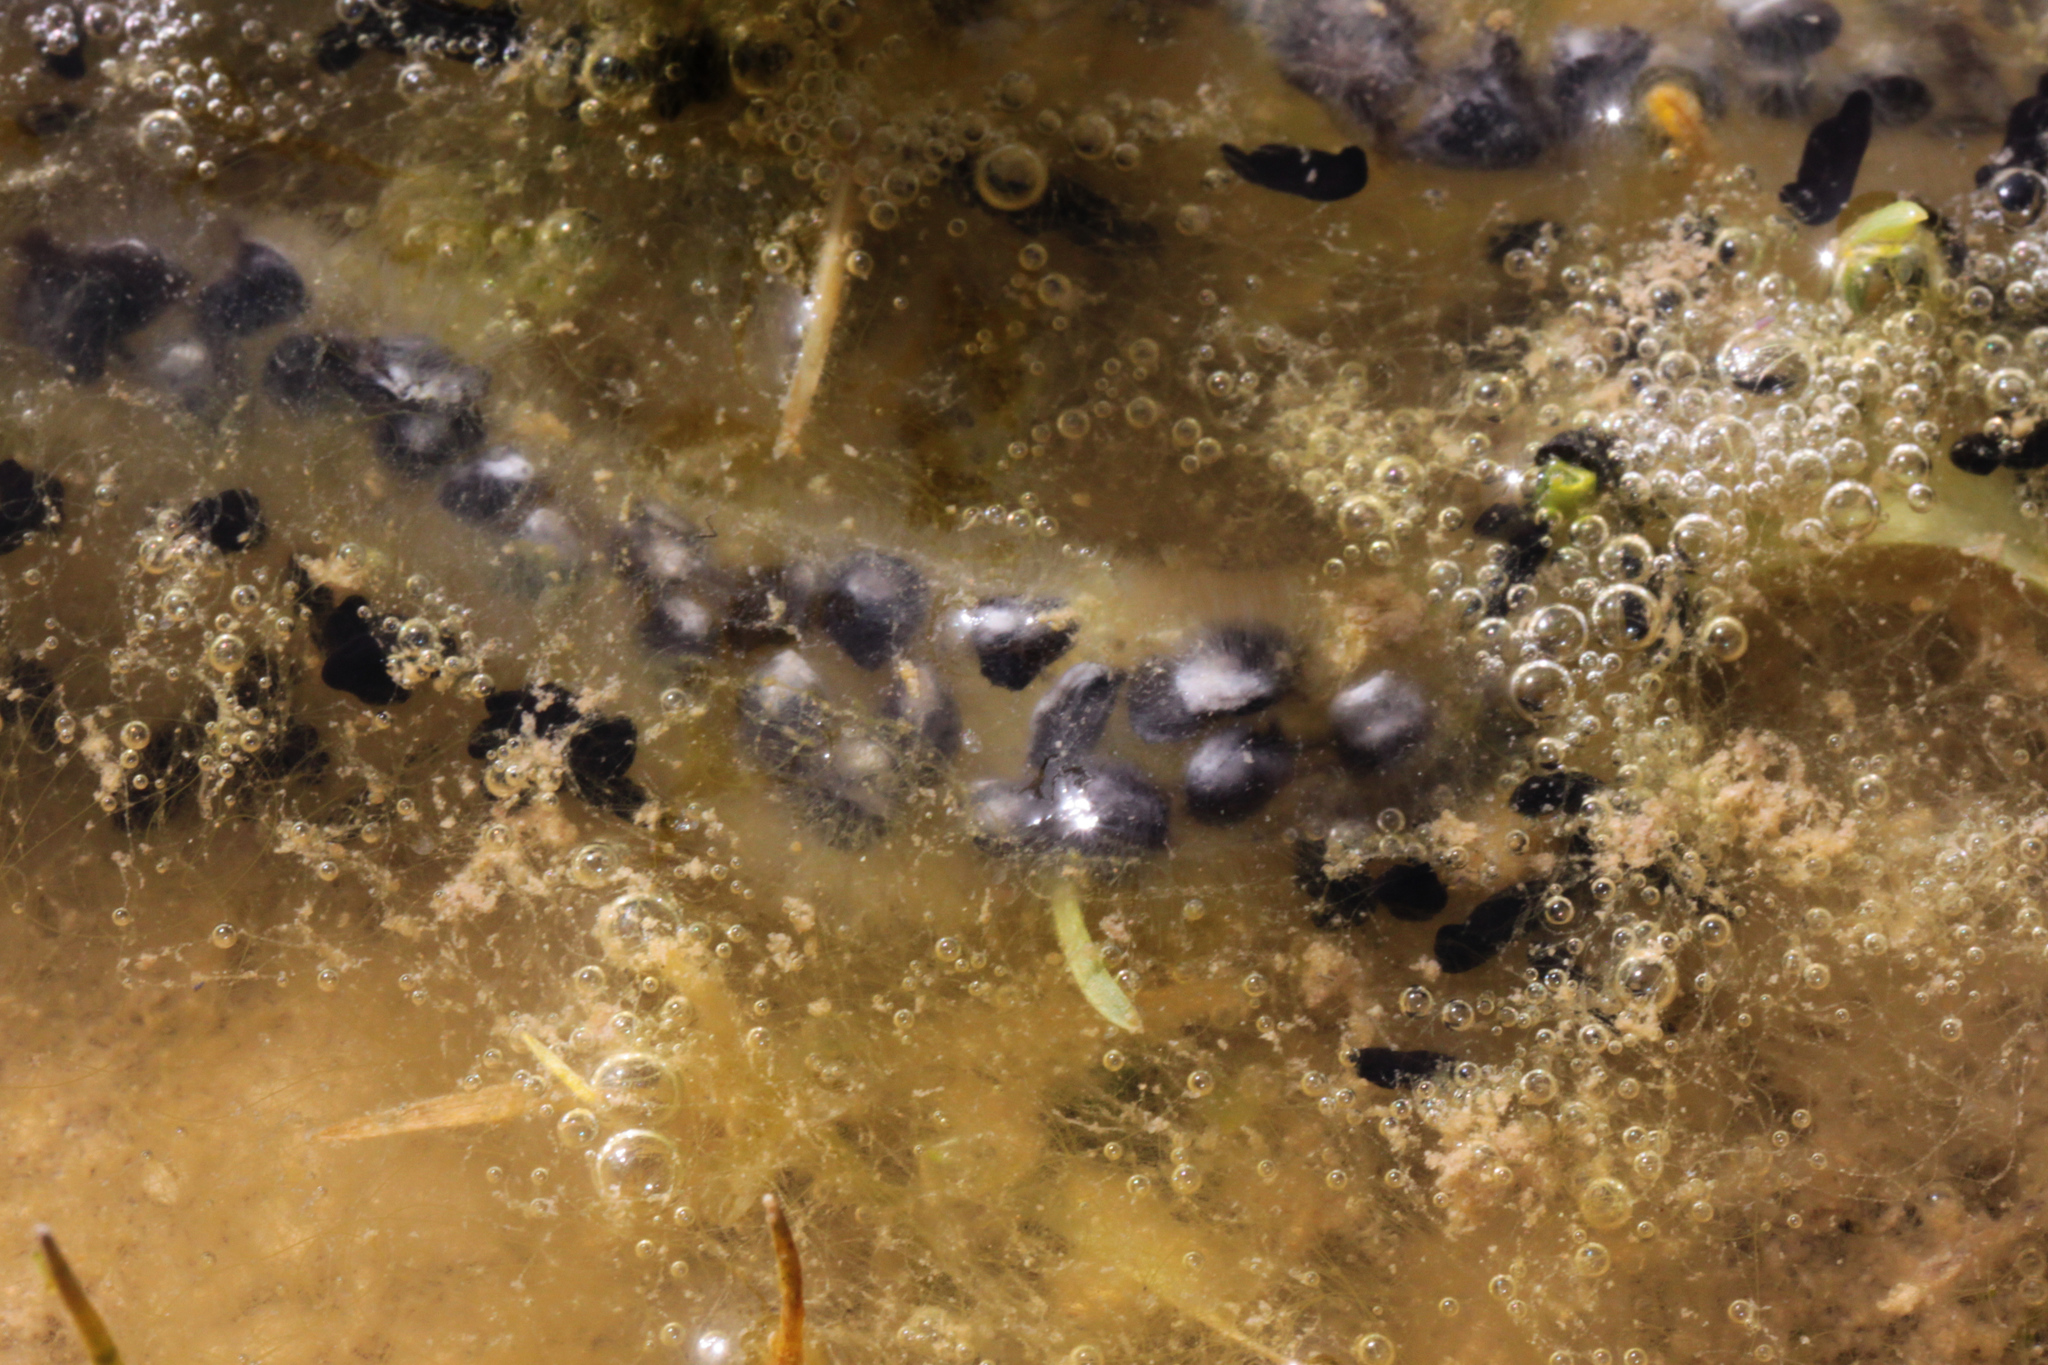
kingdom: Animalia
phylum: Chordata
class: Amphibia
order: Anura
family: Bufonidae
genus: Bufo
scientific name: Bufo bufo
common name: Common toad
